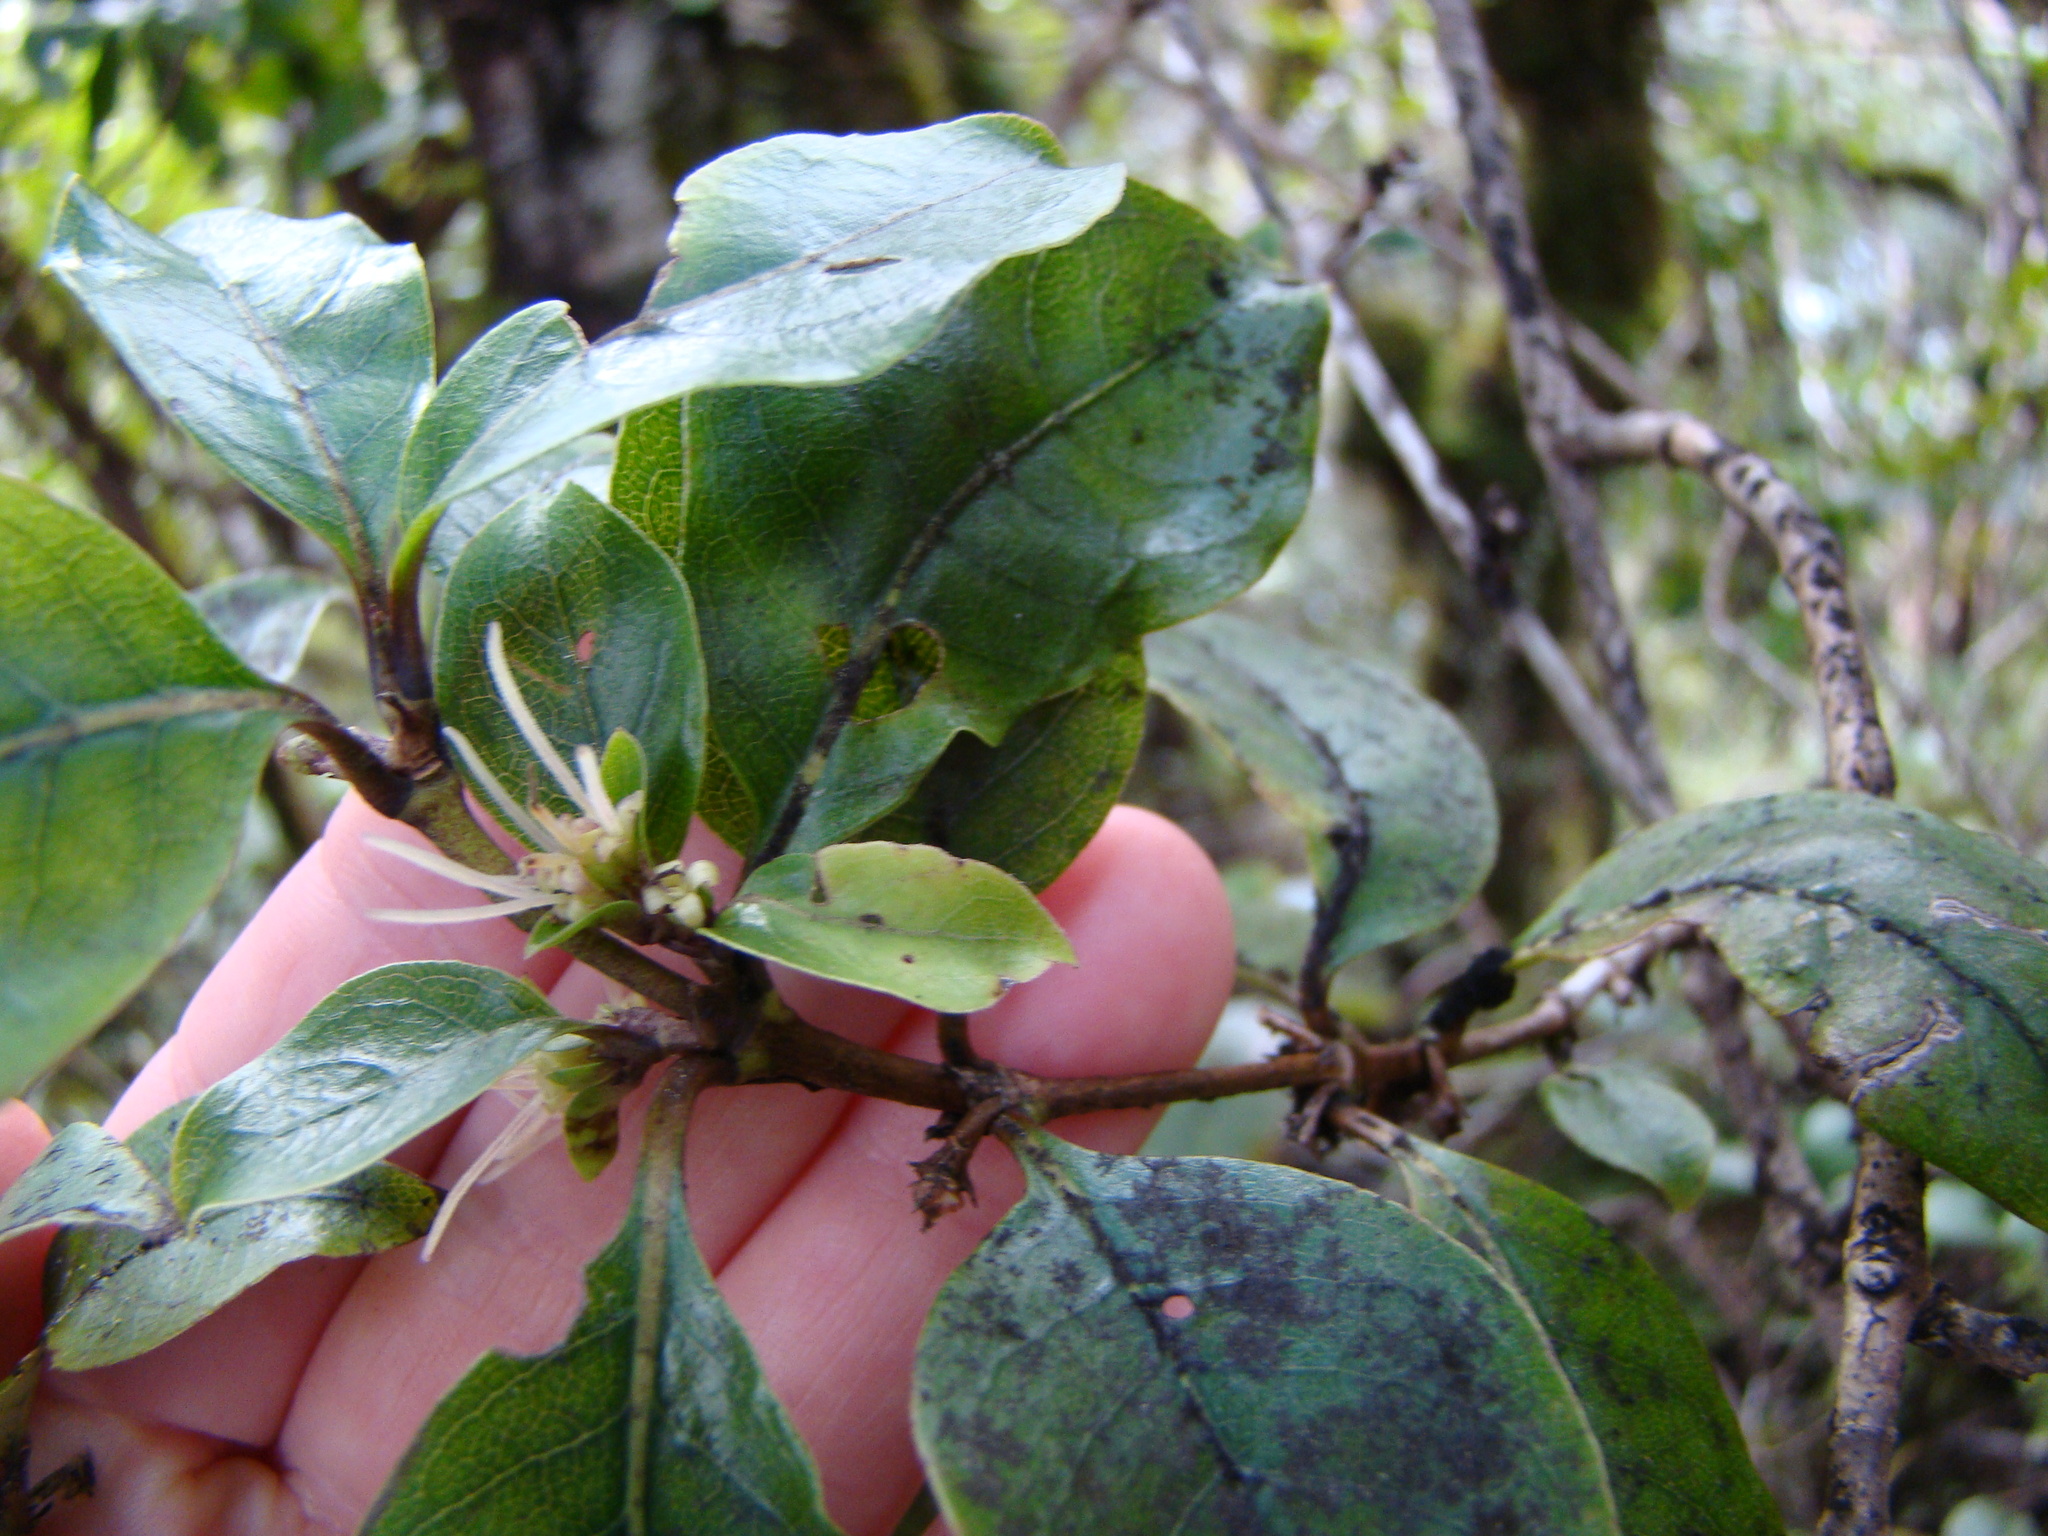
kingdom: Plantae
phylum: Tracheophyta
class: Magnoliopsida
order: Gentianales
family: Rubiaceae
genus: Coprosma
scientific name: Coprosma tenuifolia
